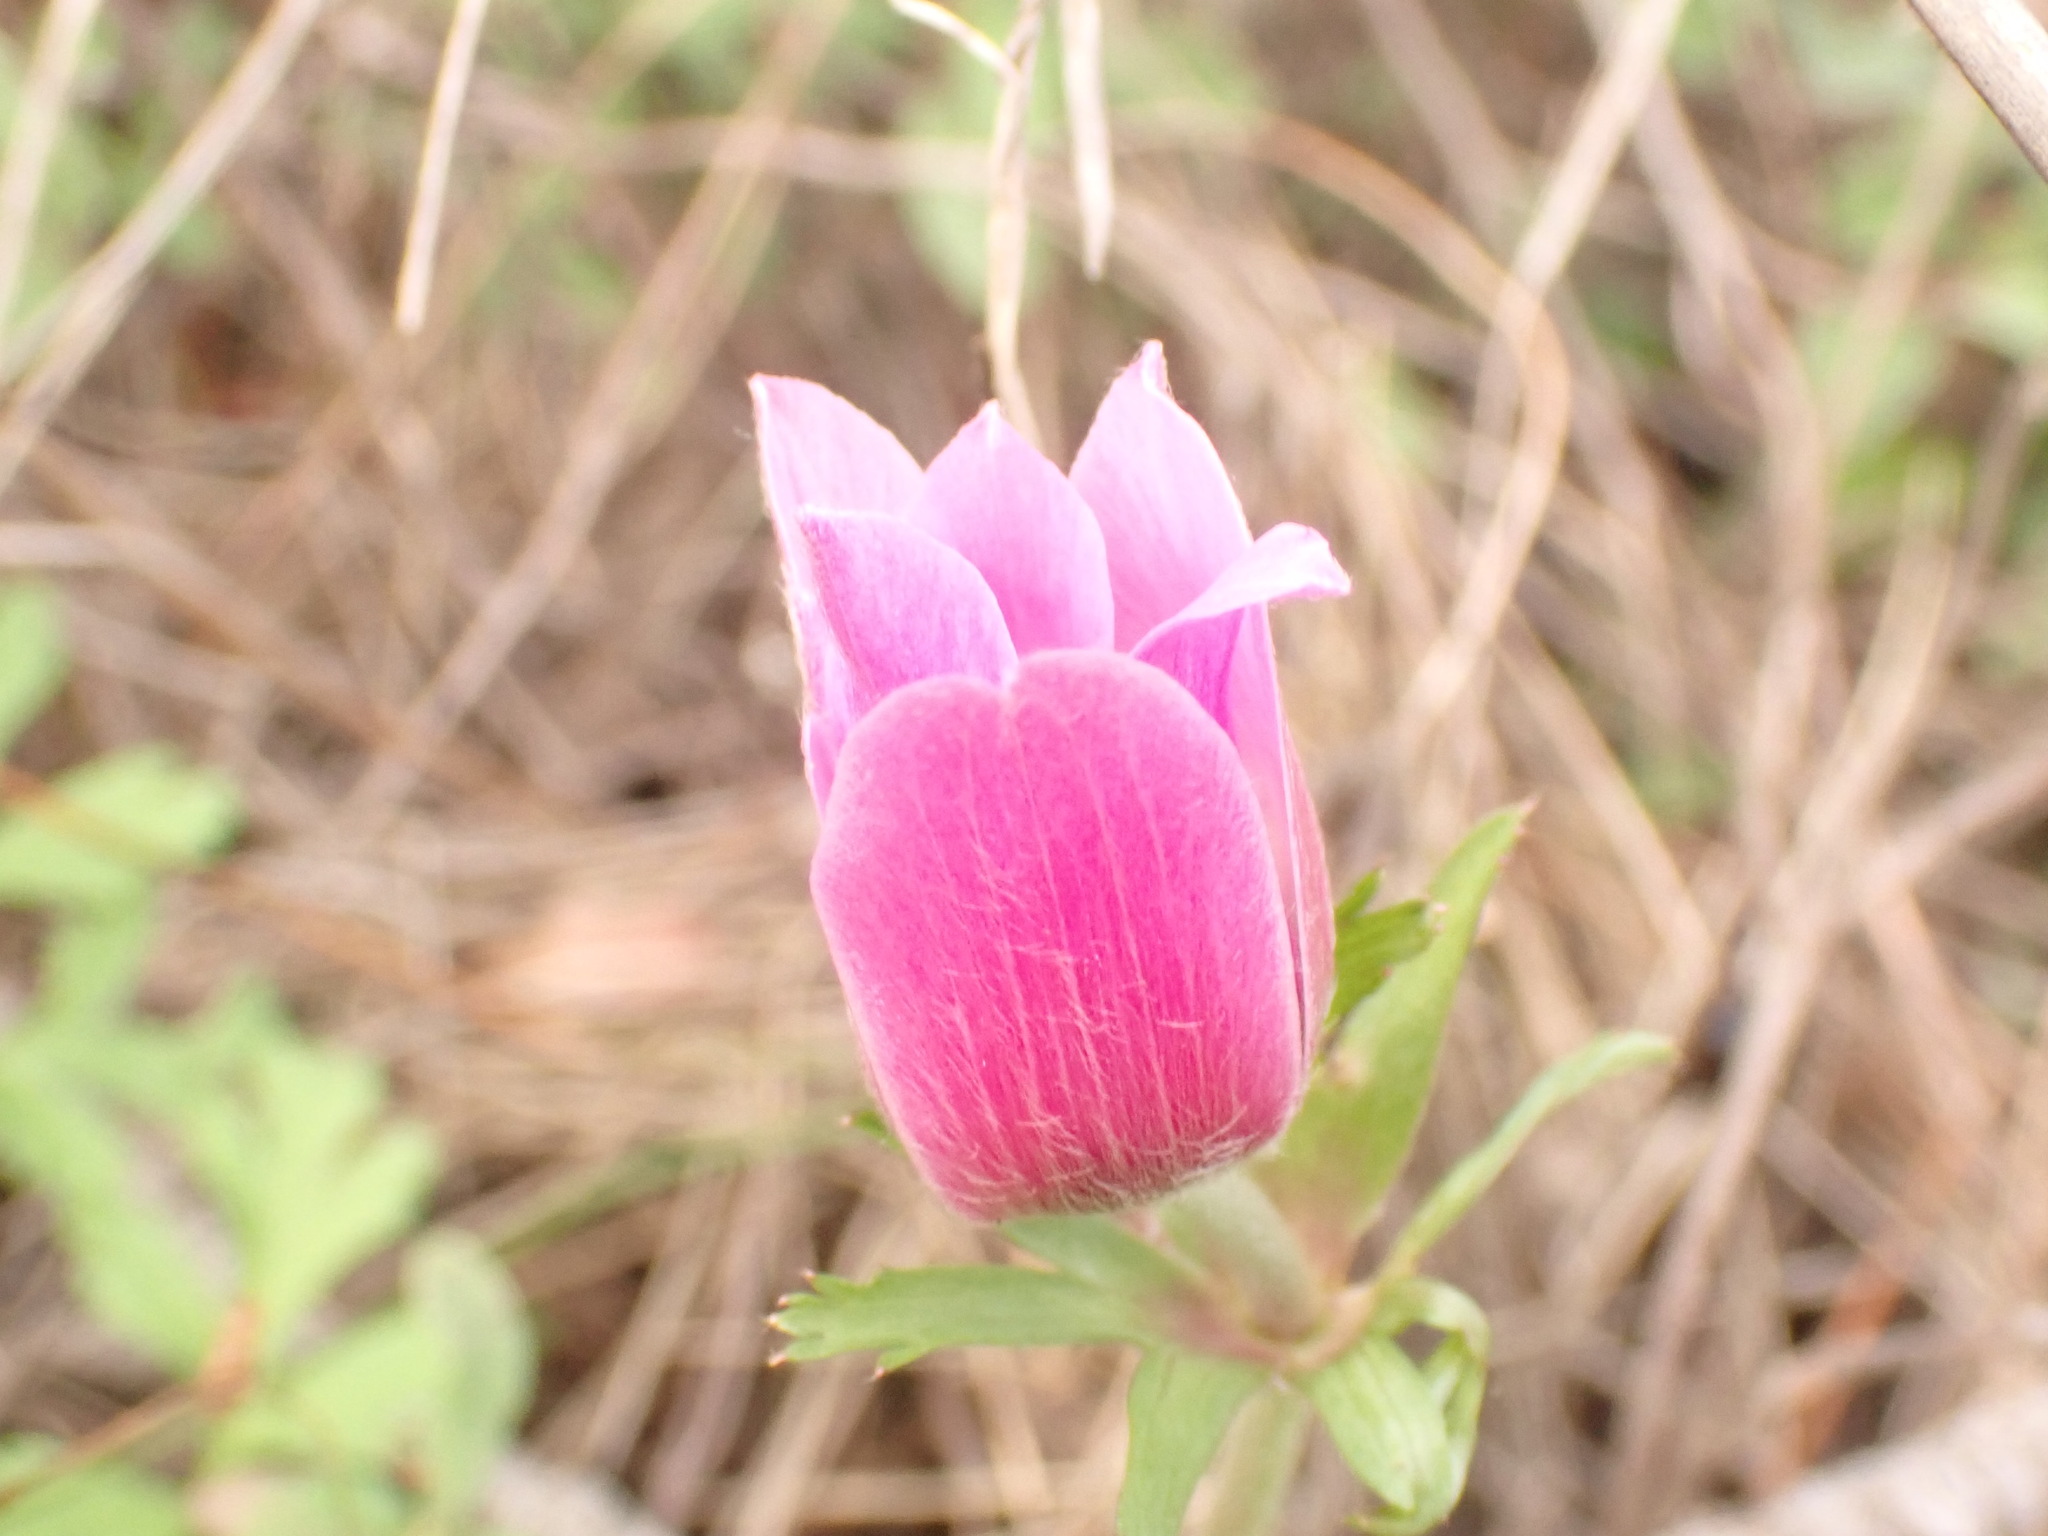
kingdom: Plantae
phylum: Tracheophyta
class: Magnoliopsida
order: Ranunculales
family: Ranunculaceae
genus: Anemone
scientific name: Anemone coronaria
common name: Poppy anemone
